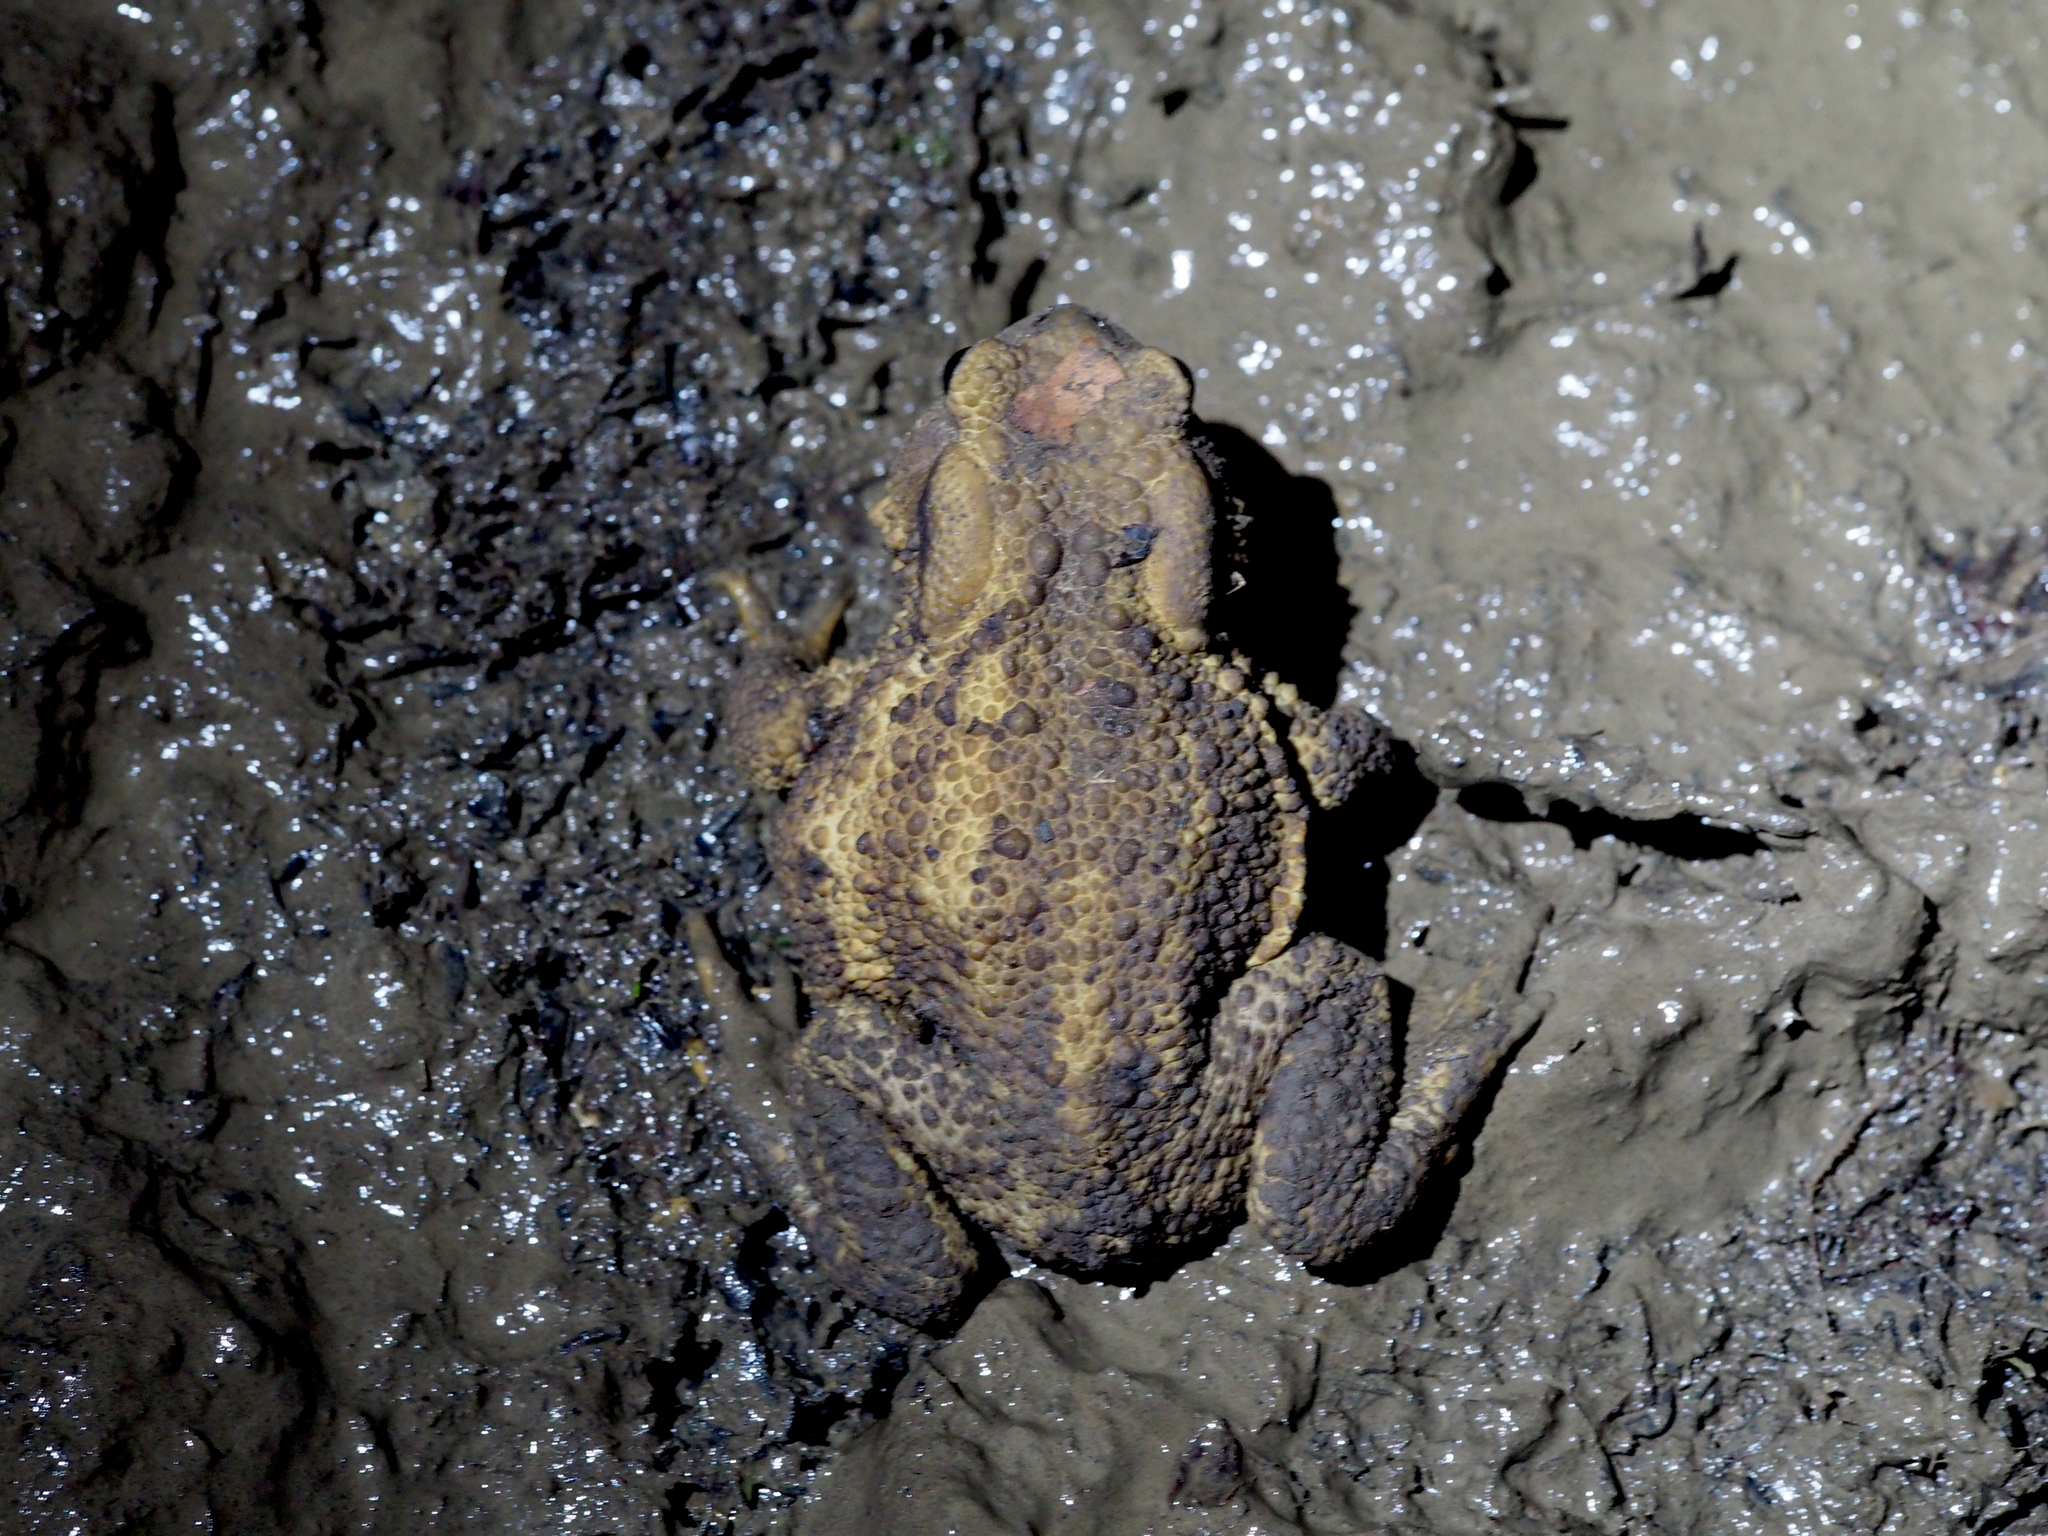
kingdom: Animalia
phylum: Chordata
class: Amphibia
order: Anura
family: Bufonidae
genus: Bufo
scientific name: Bufo bufo
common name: Common toad
